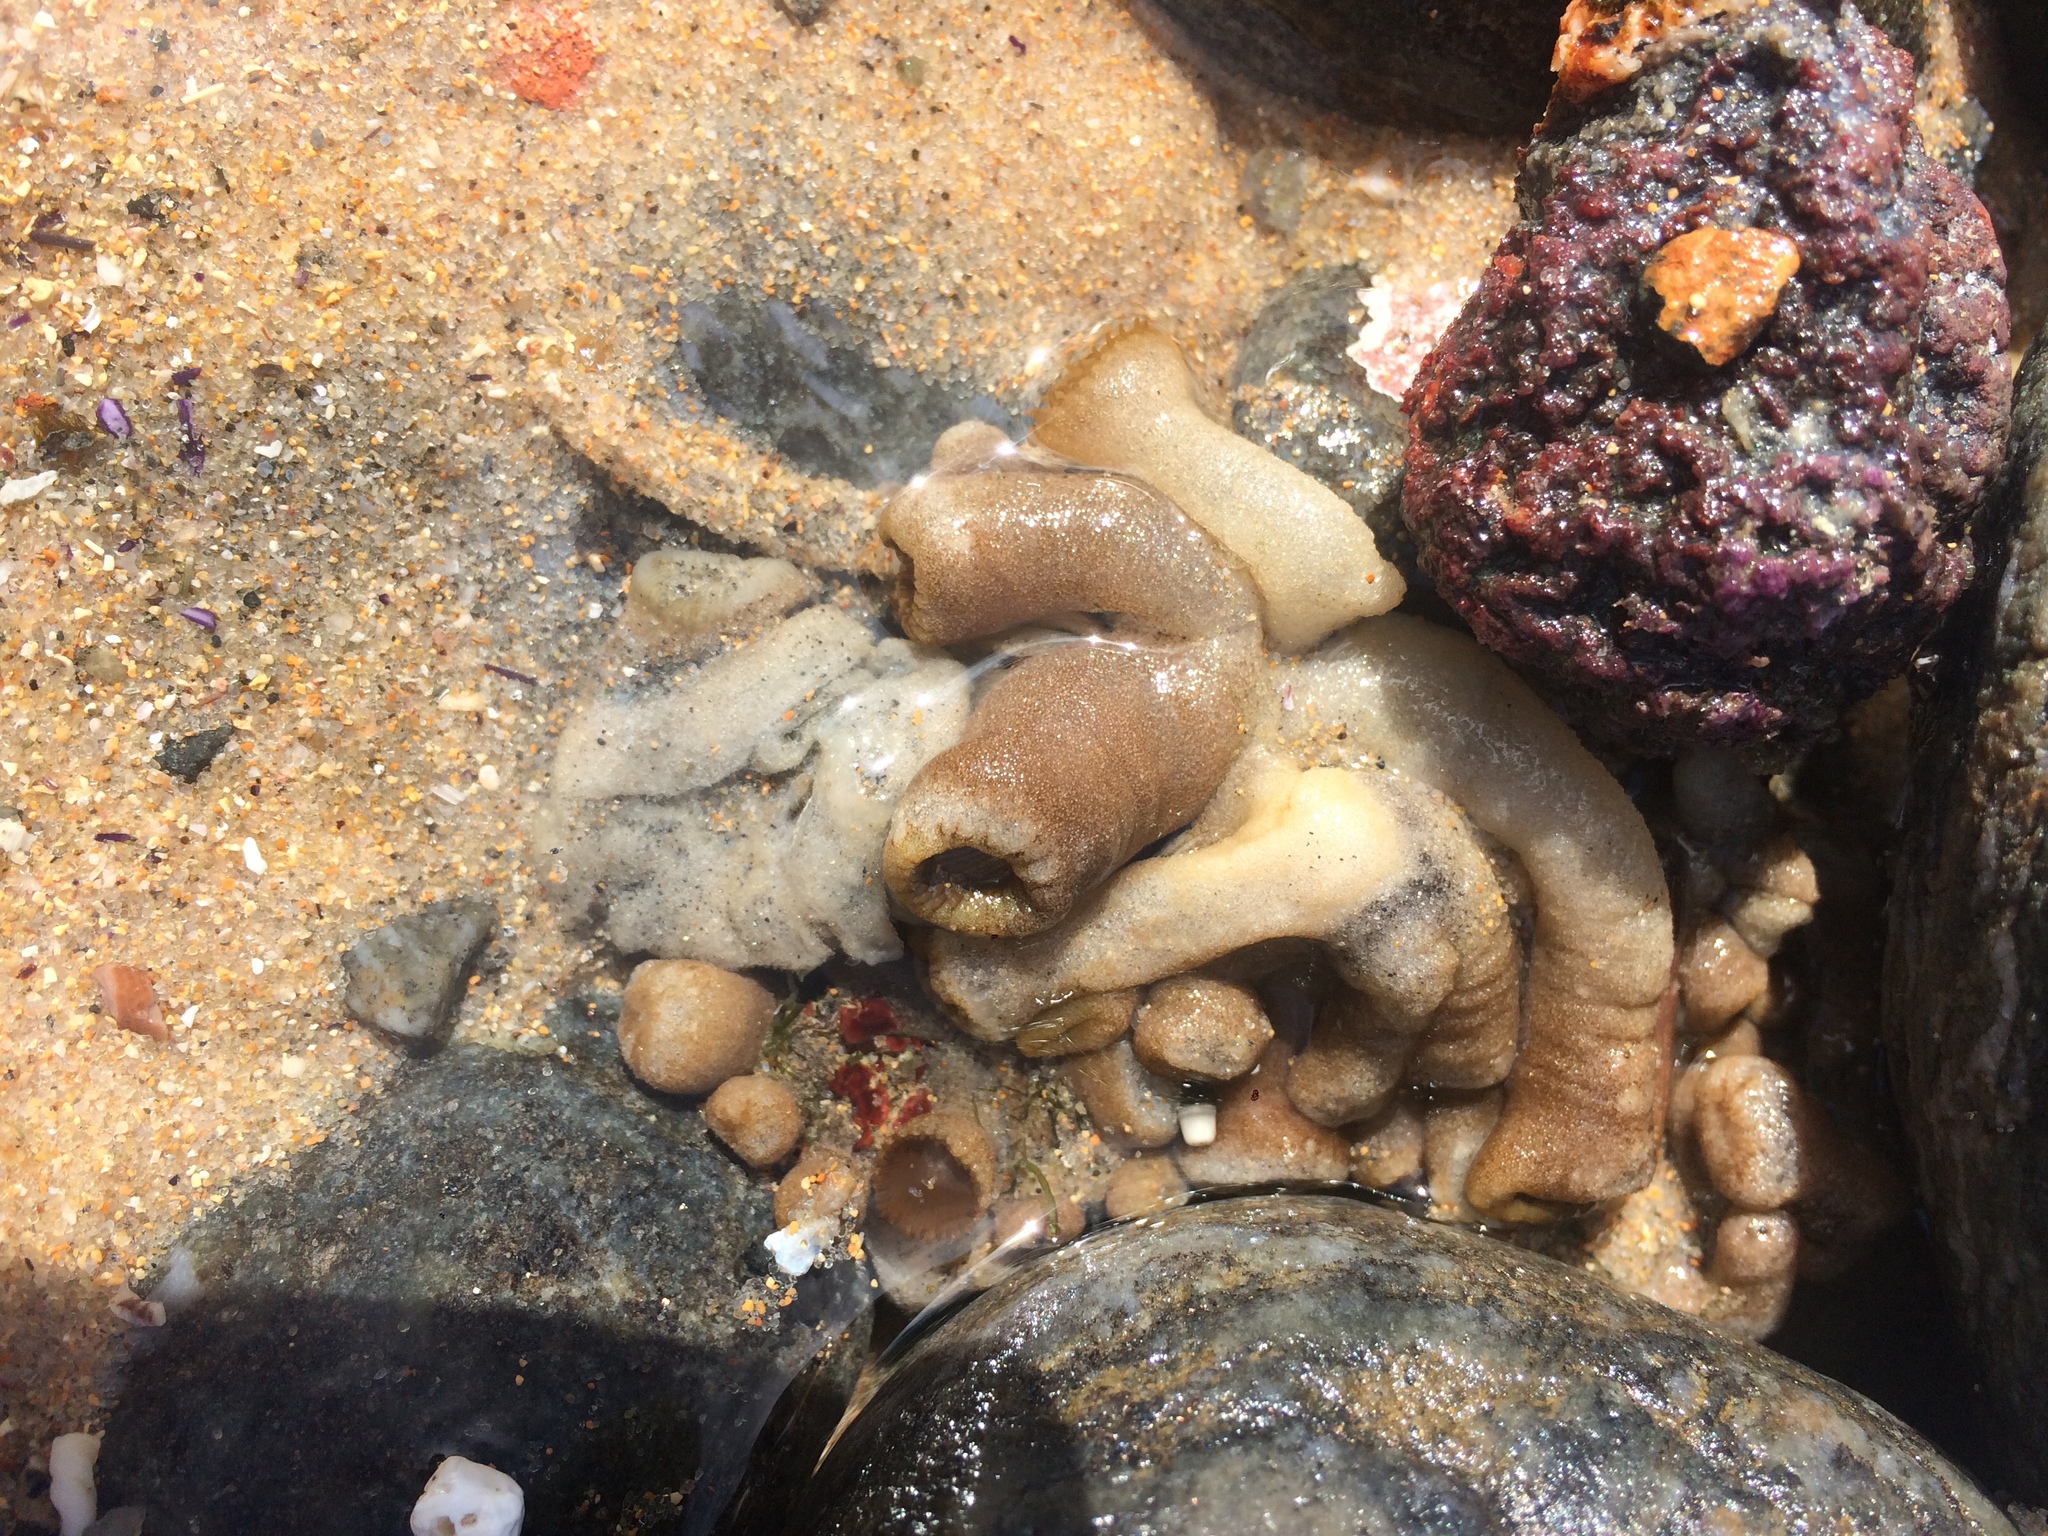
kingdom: Animalia
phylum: Cnidaria
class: Anthozoa
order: Zoantharia
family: Sphenopidae
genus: Palythoa
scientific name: Palythoa grandiflora
